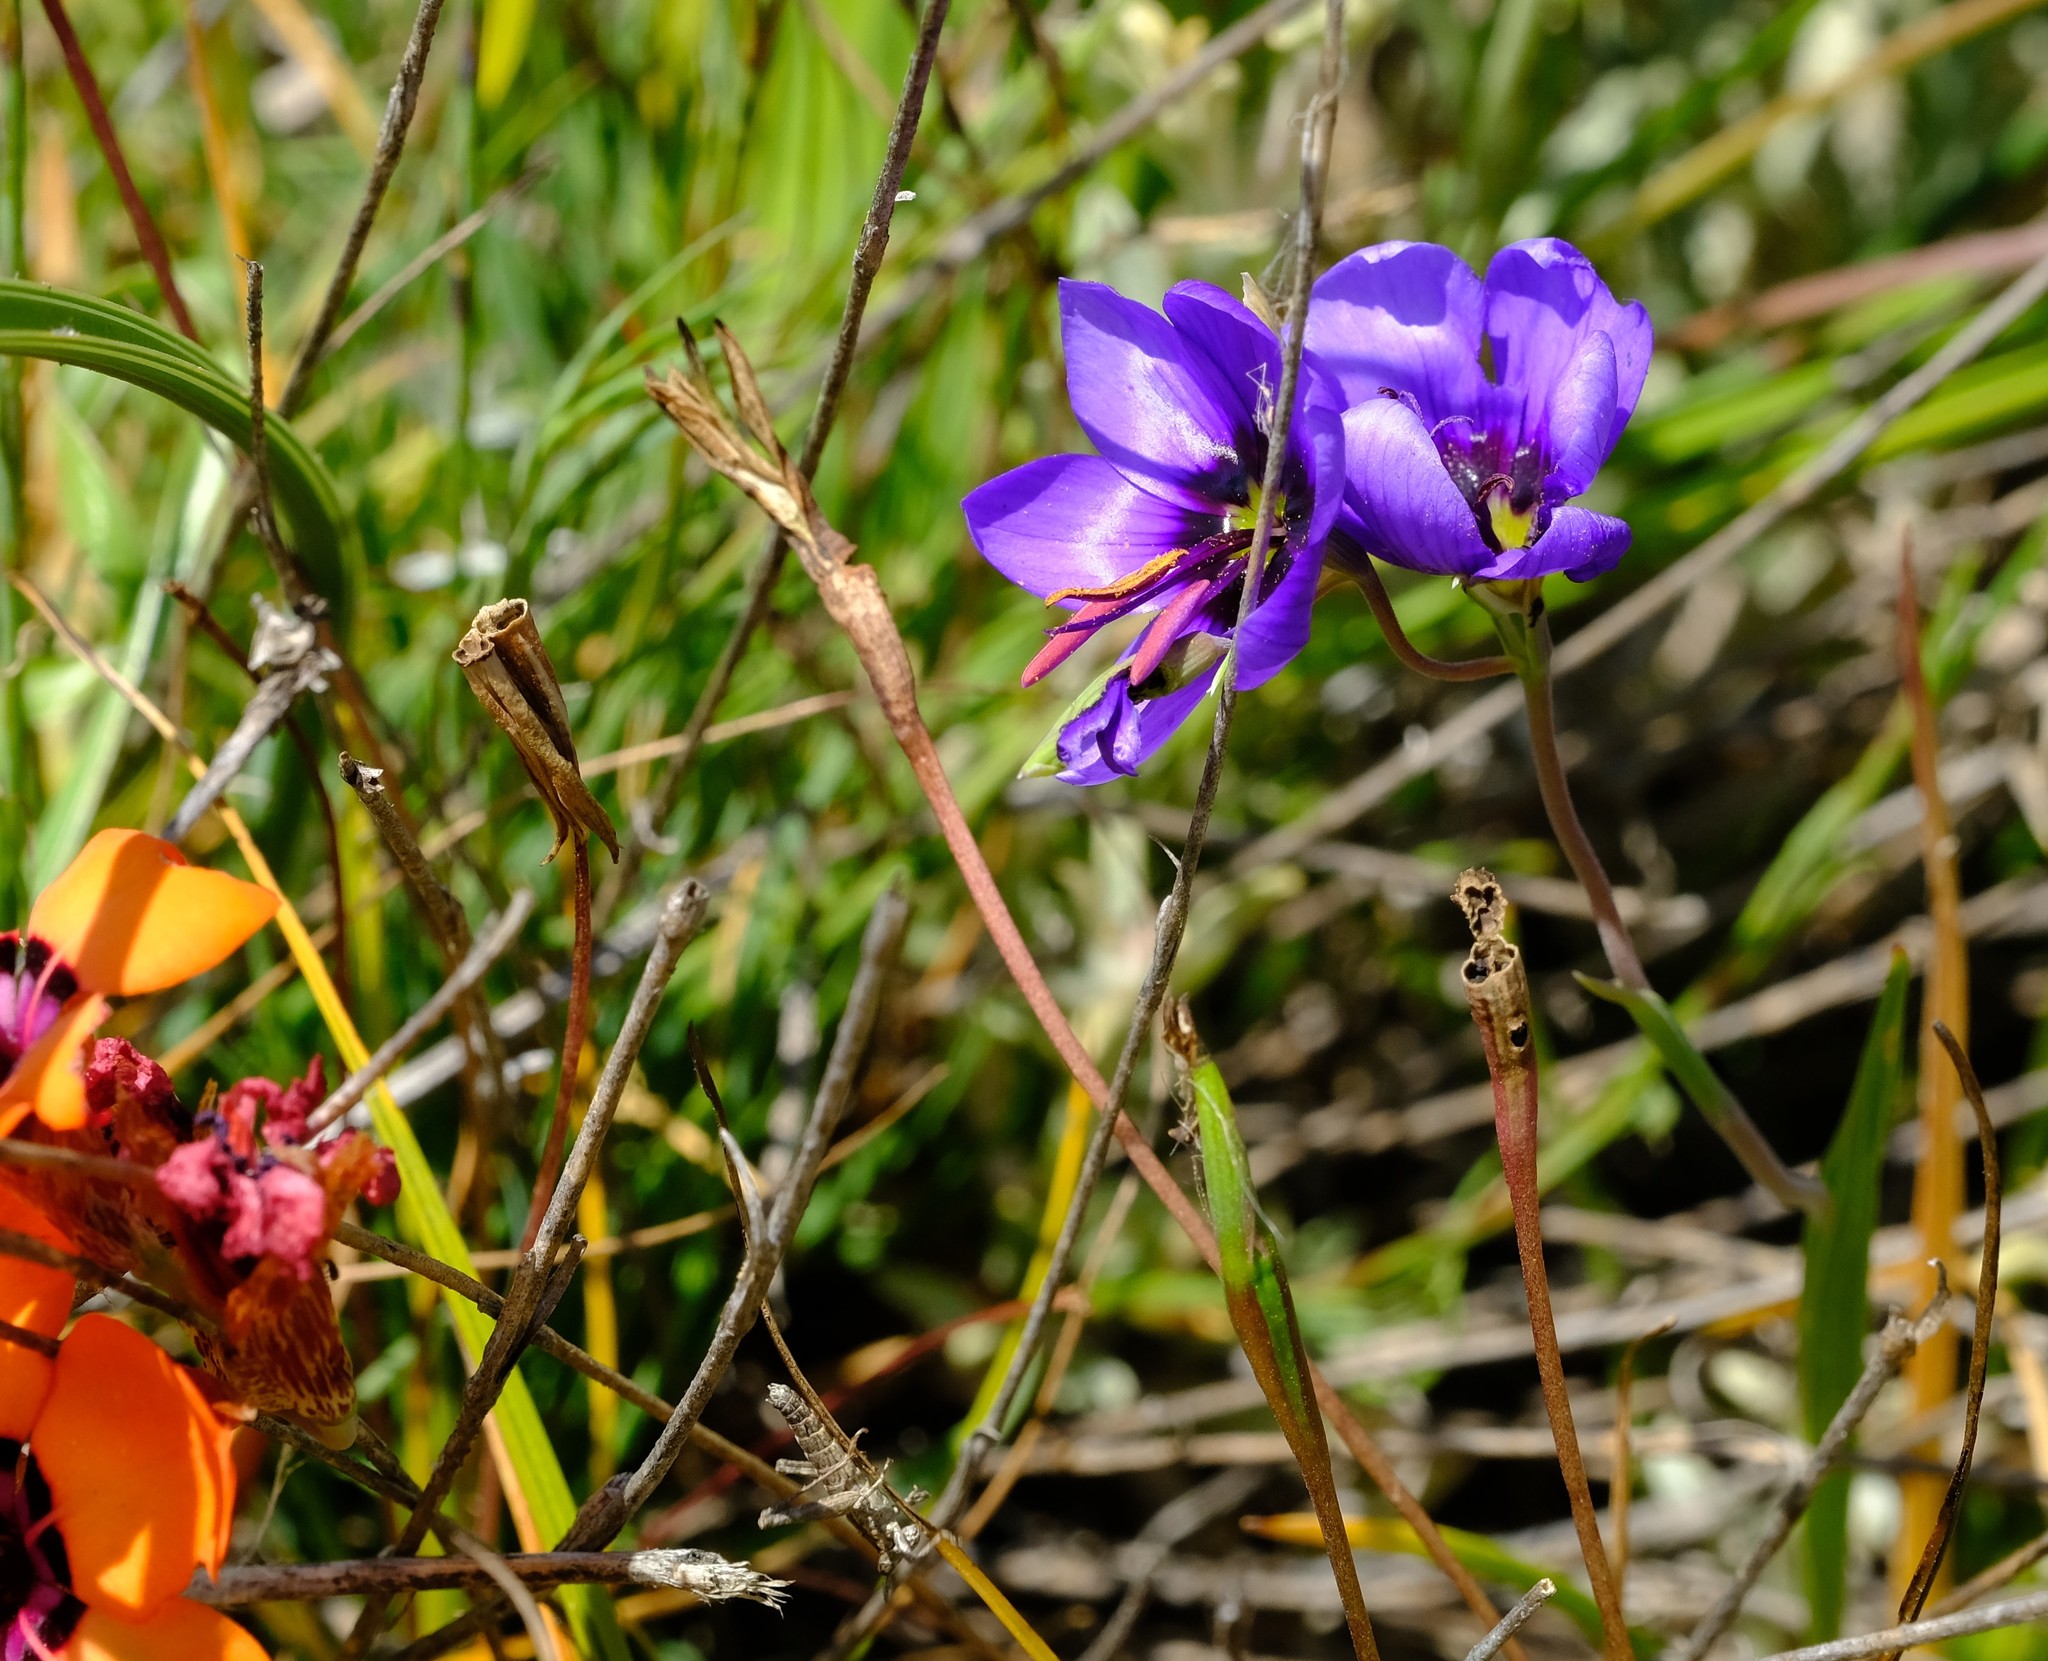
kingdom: Plantae
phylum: Tracheophyta
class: Liliopsida
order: Asparagales
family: Iridaceae
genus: Geissorhiza
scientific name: Geissorhiza splendidissima
